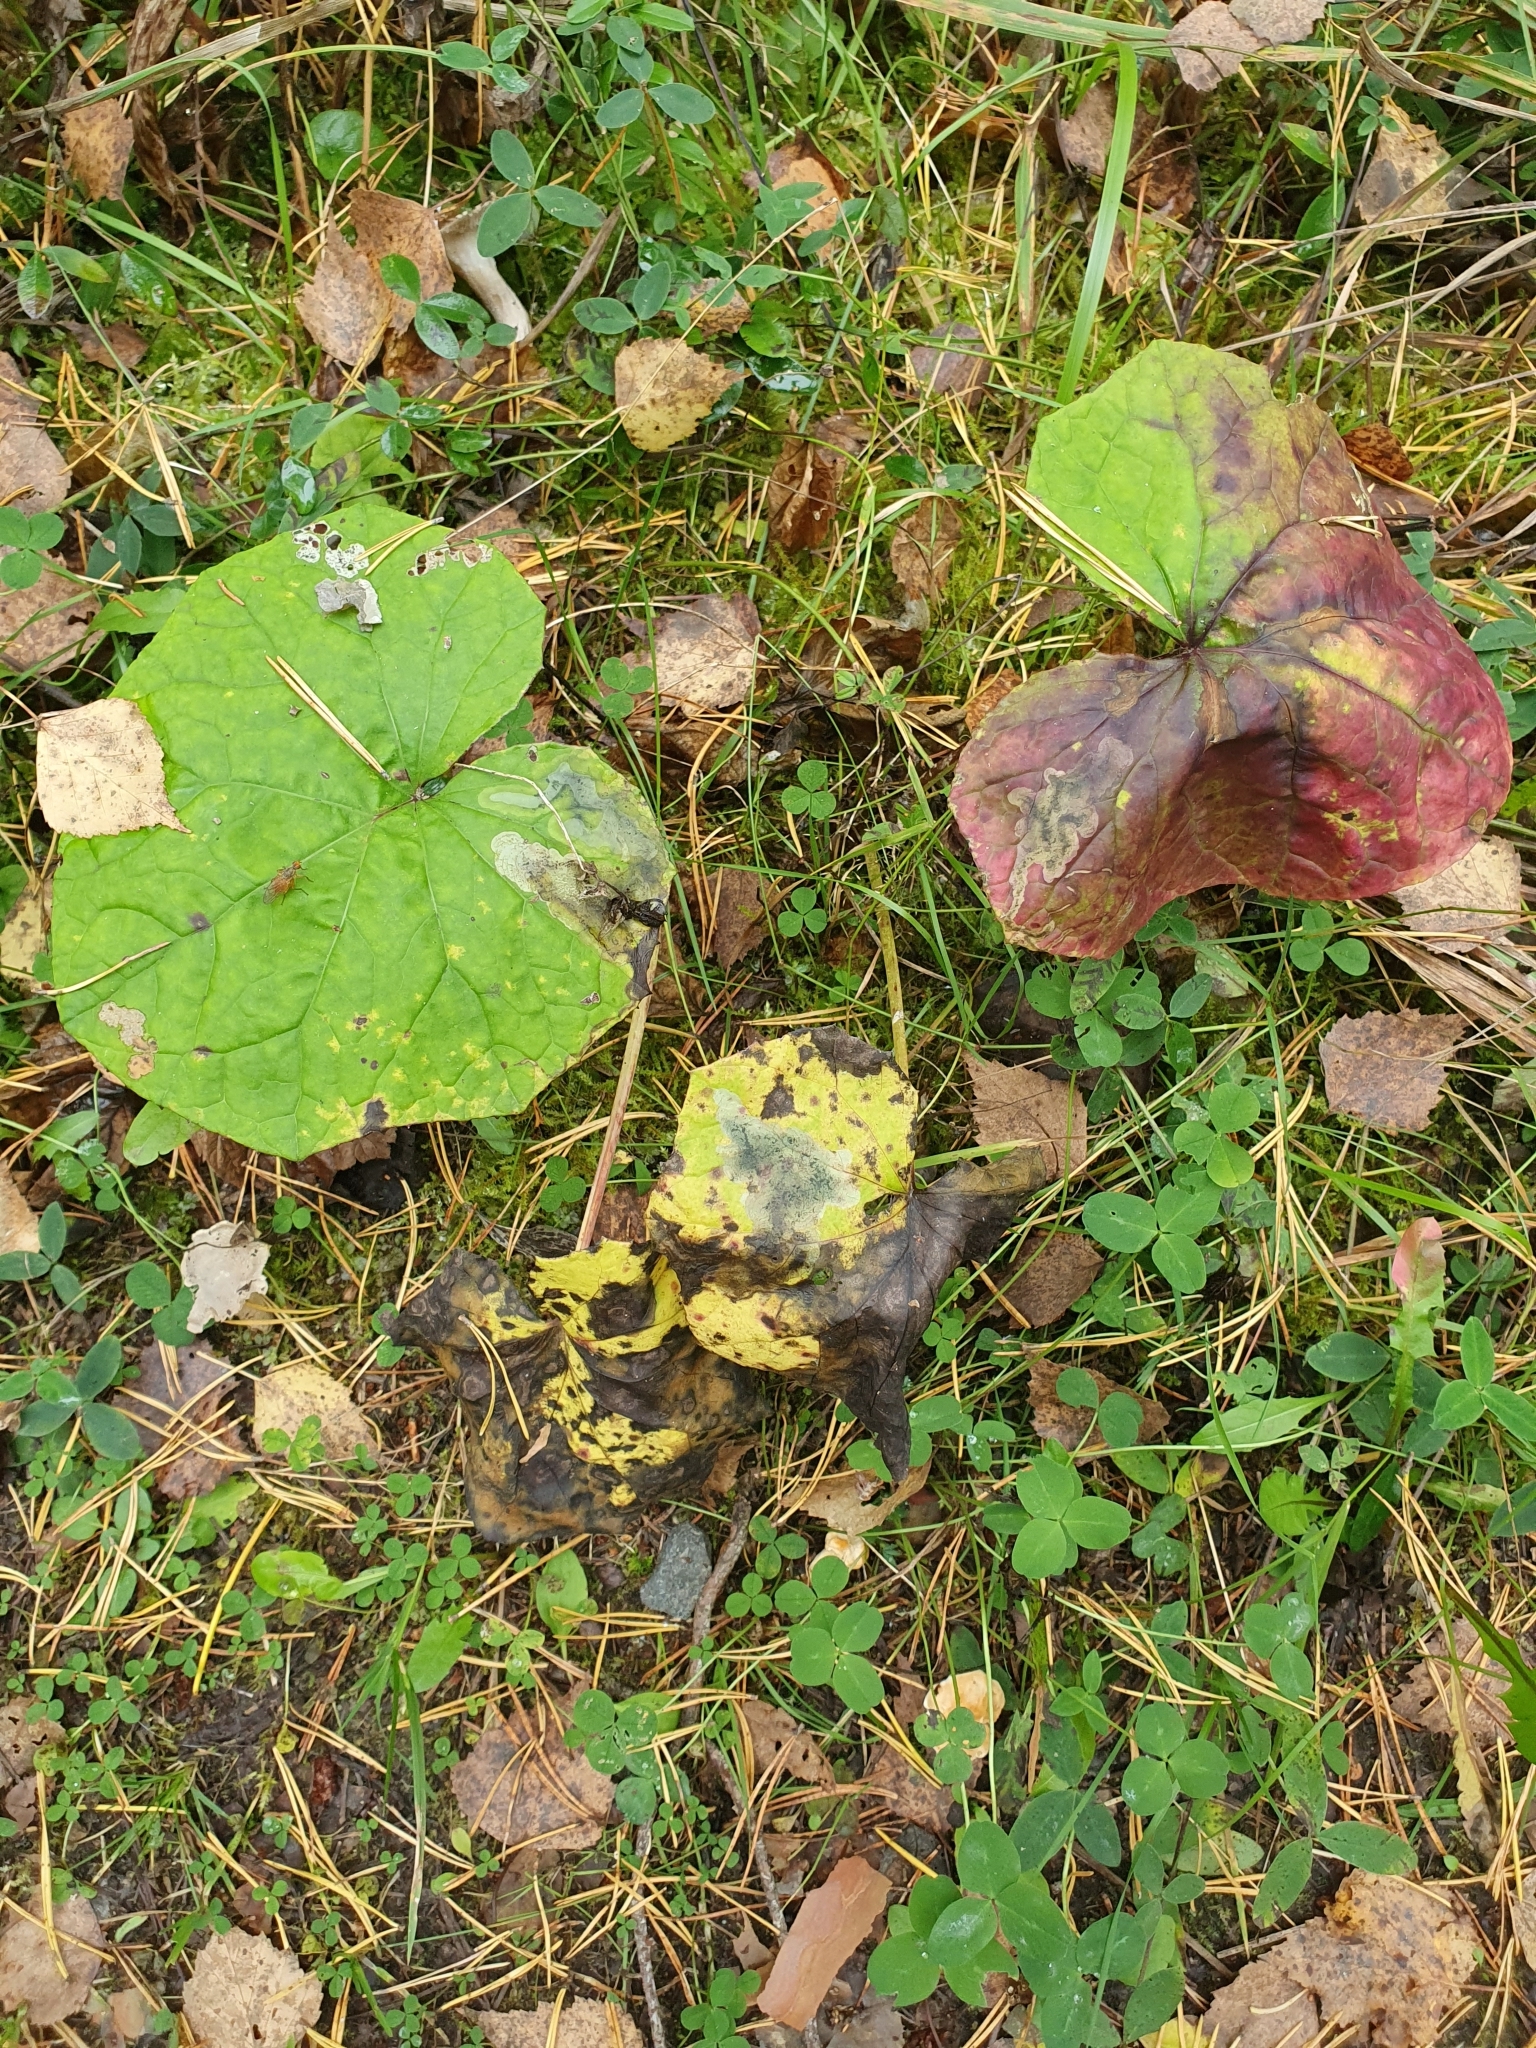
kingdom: Plantae
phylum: Tracheophyta
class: Magnoliopsida
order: Asterales
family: Asteraceae
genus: Tussilago
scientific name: Tussilago farfara
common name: Coltsfoot
